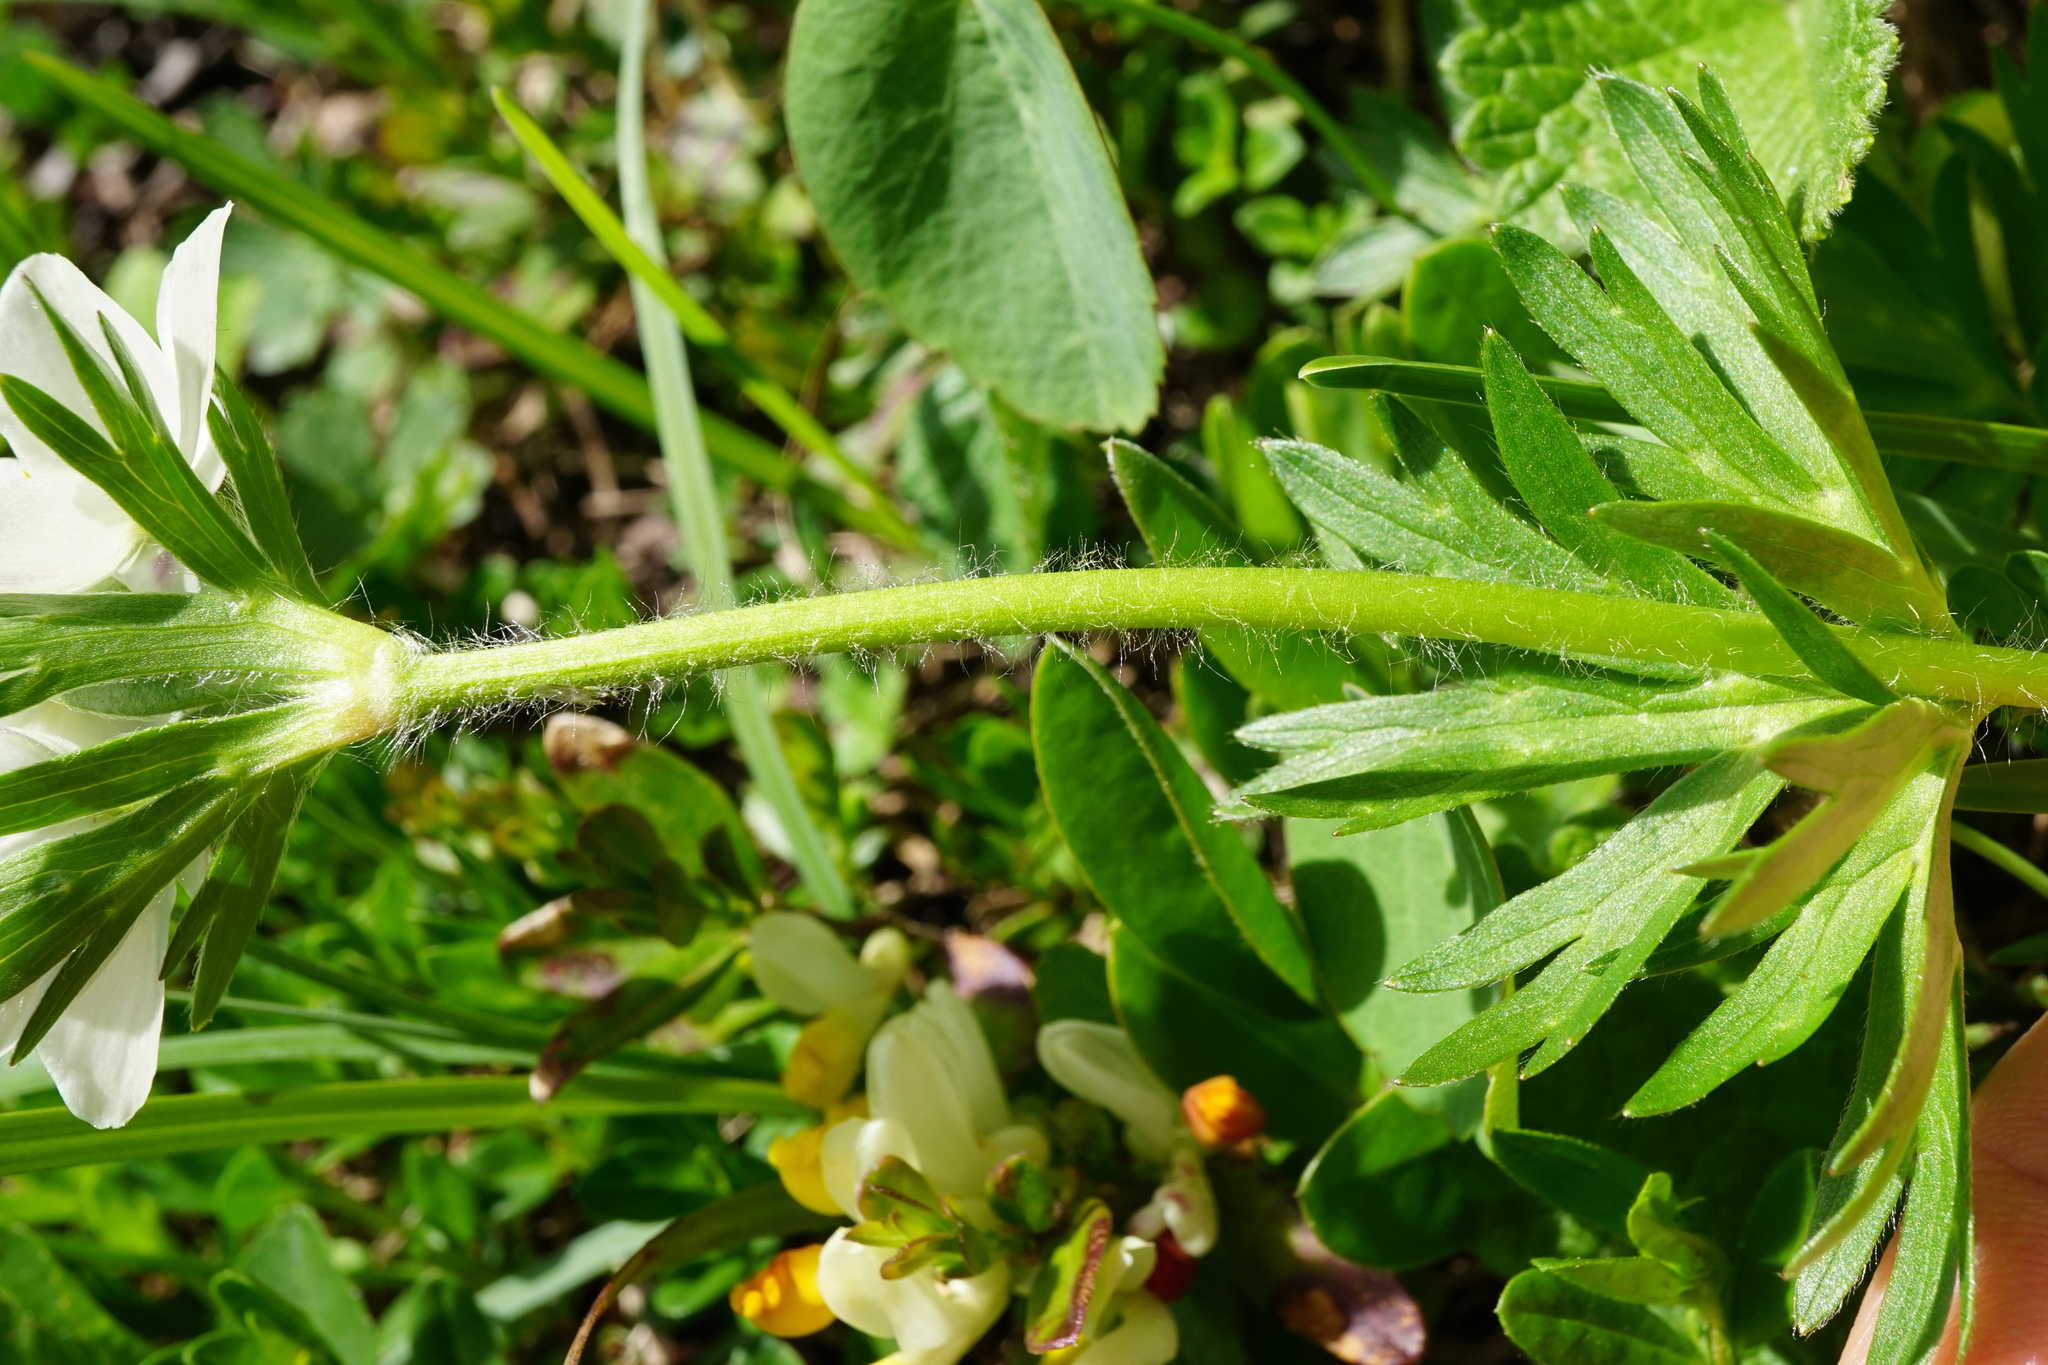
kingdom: Plantae
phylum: Tracheophyta
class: Magnoliopsida
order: Ranunculales
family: Ranunculaceae
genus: Anemonastrum
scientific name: Anemonastrum narcissiflorum
